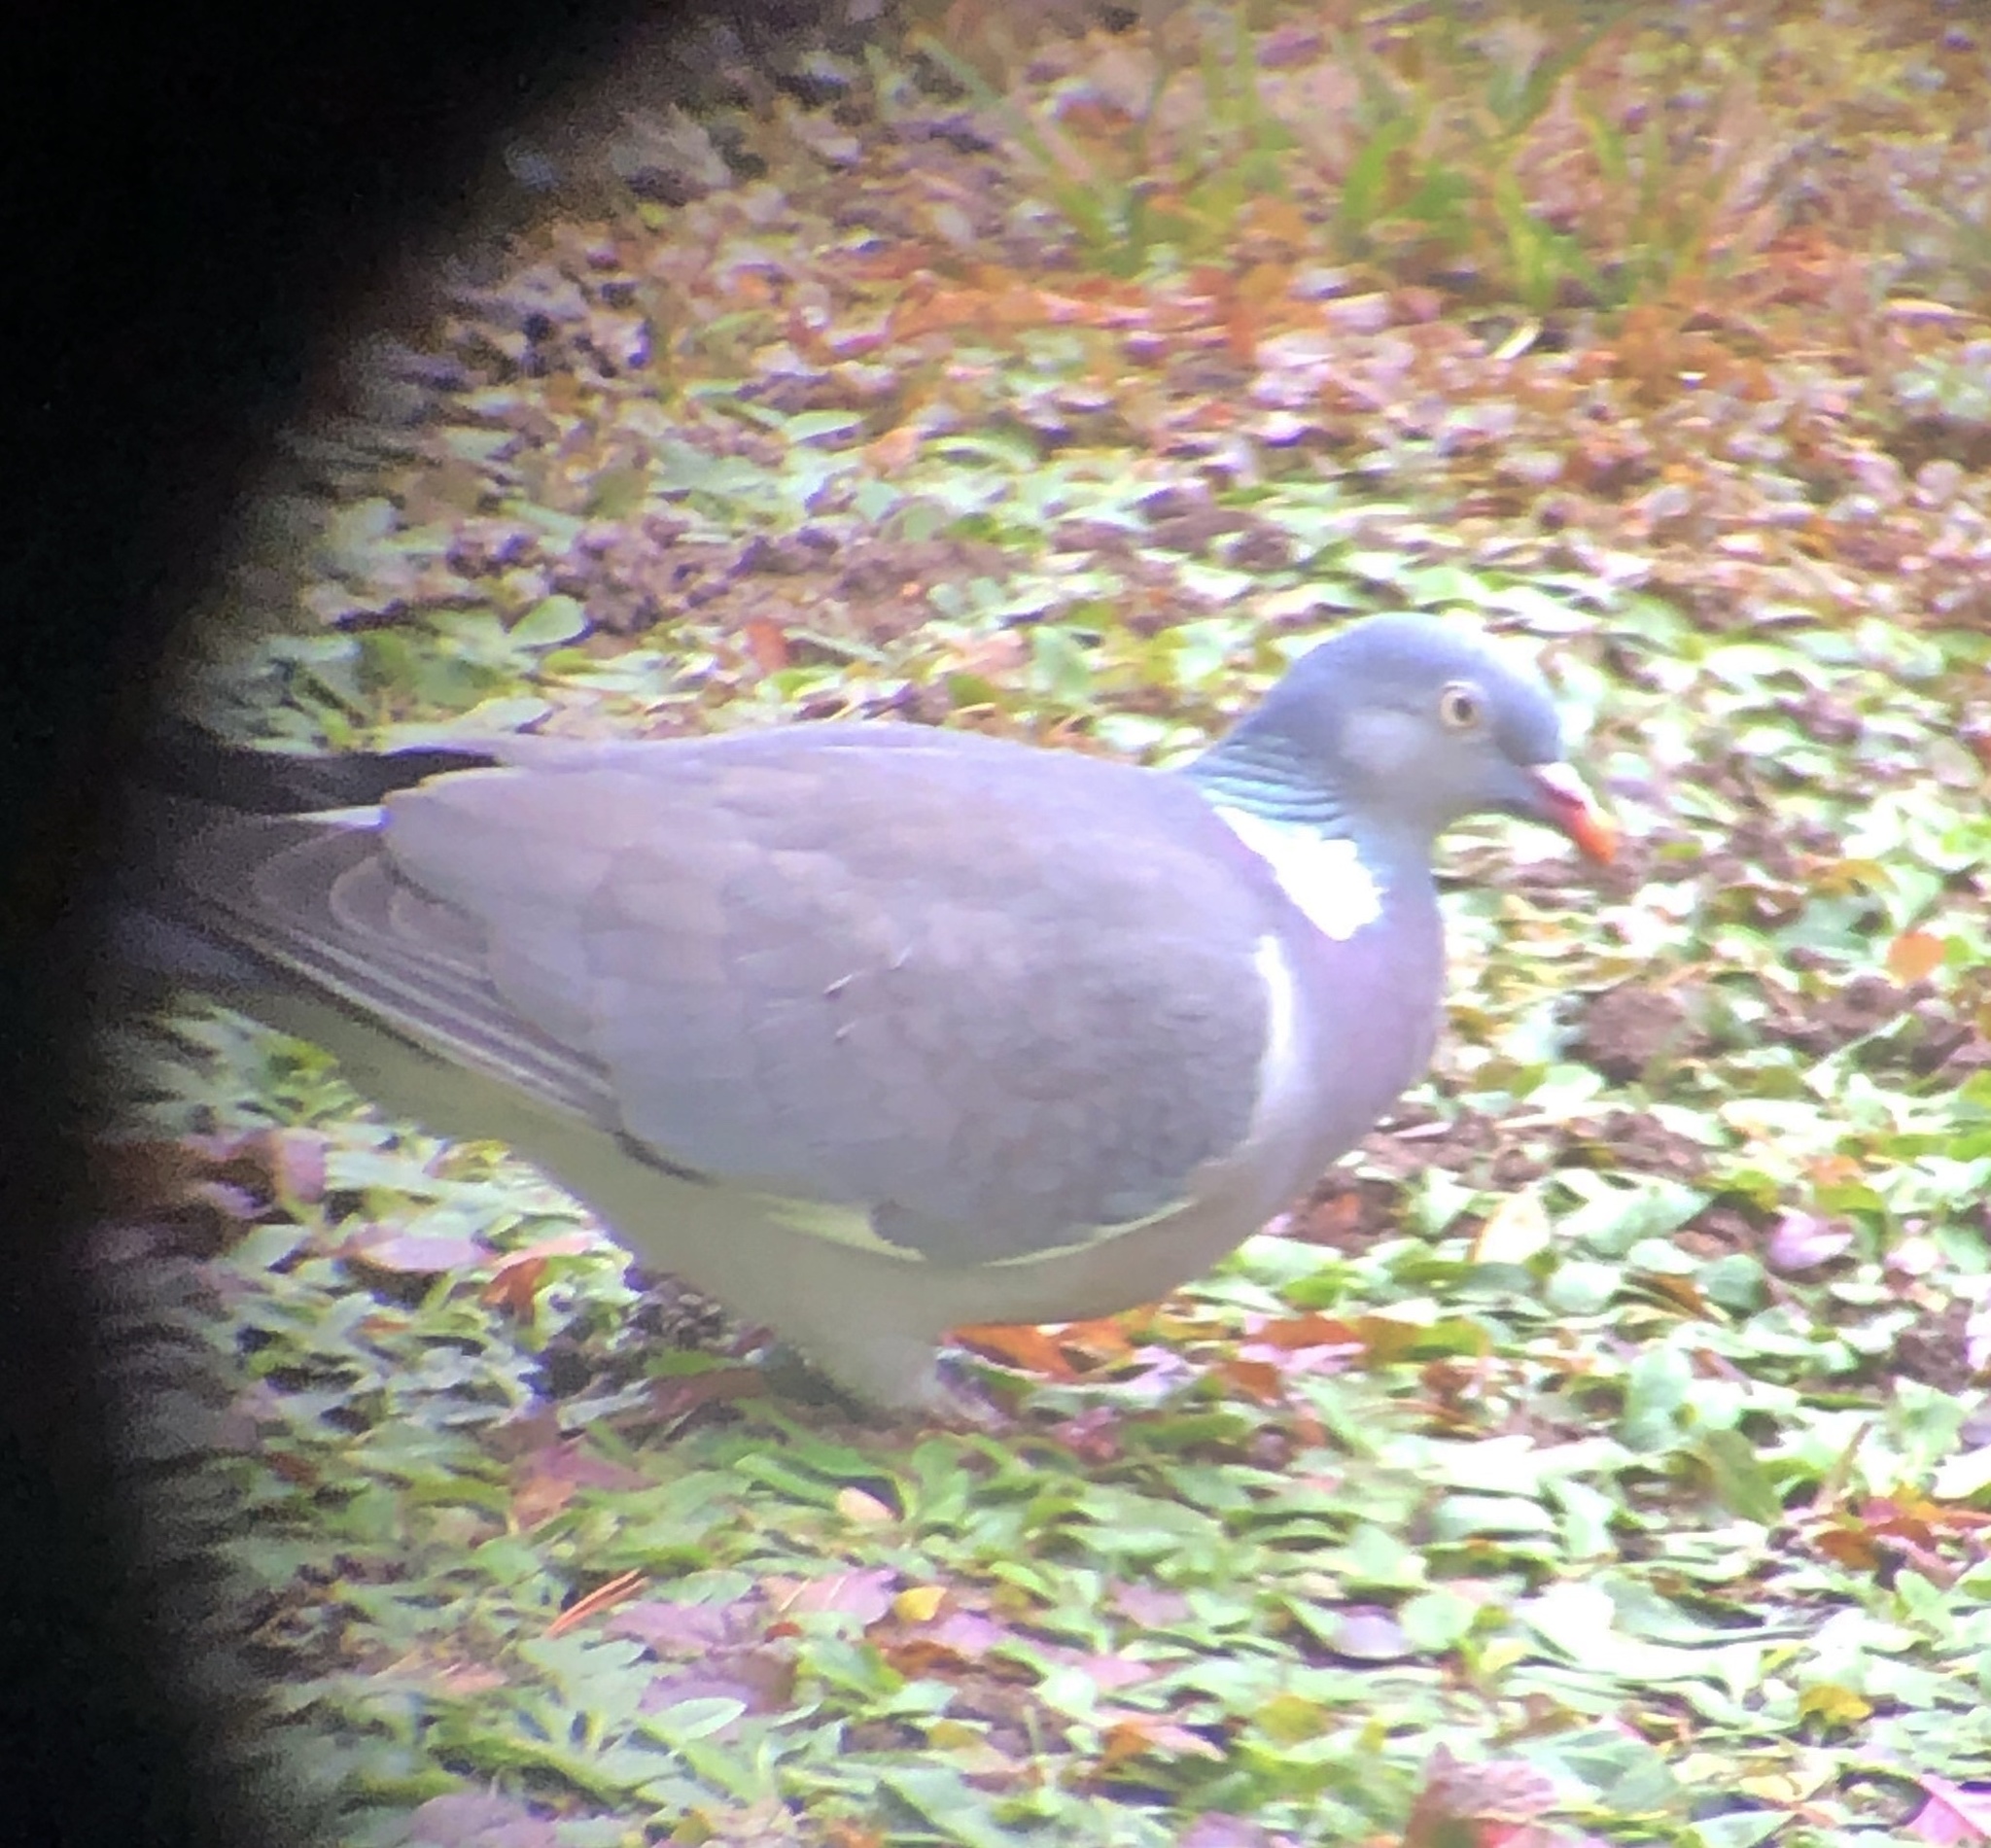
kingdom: Animalia
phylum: Chordata
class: Aves
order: Columbiformes
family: Columbidae
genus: Columba
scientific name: Columba palumbus
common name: Common wood pigeon
